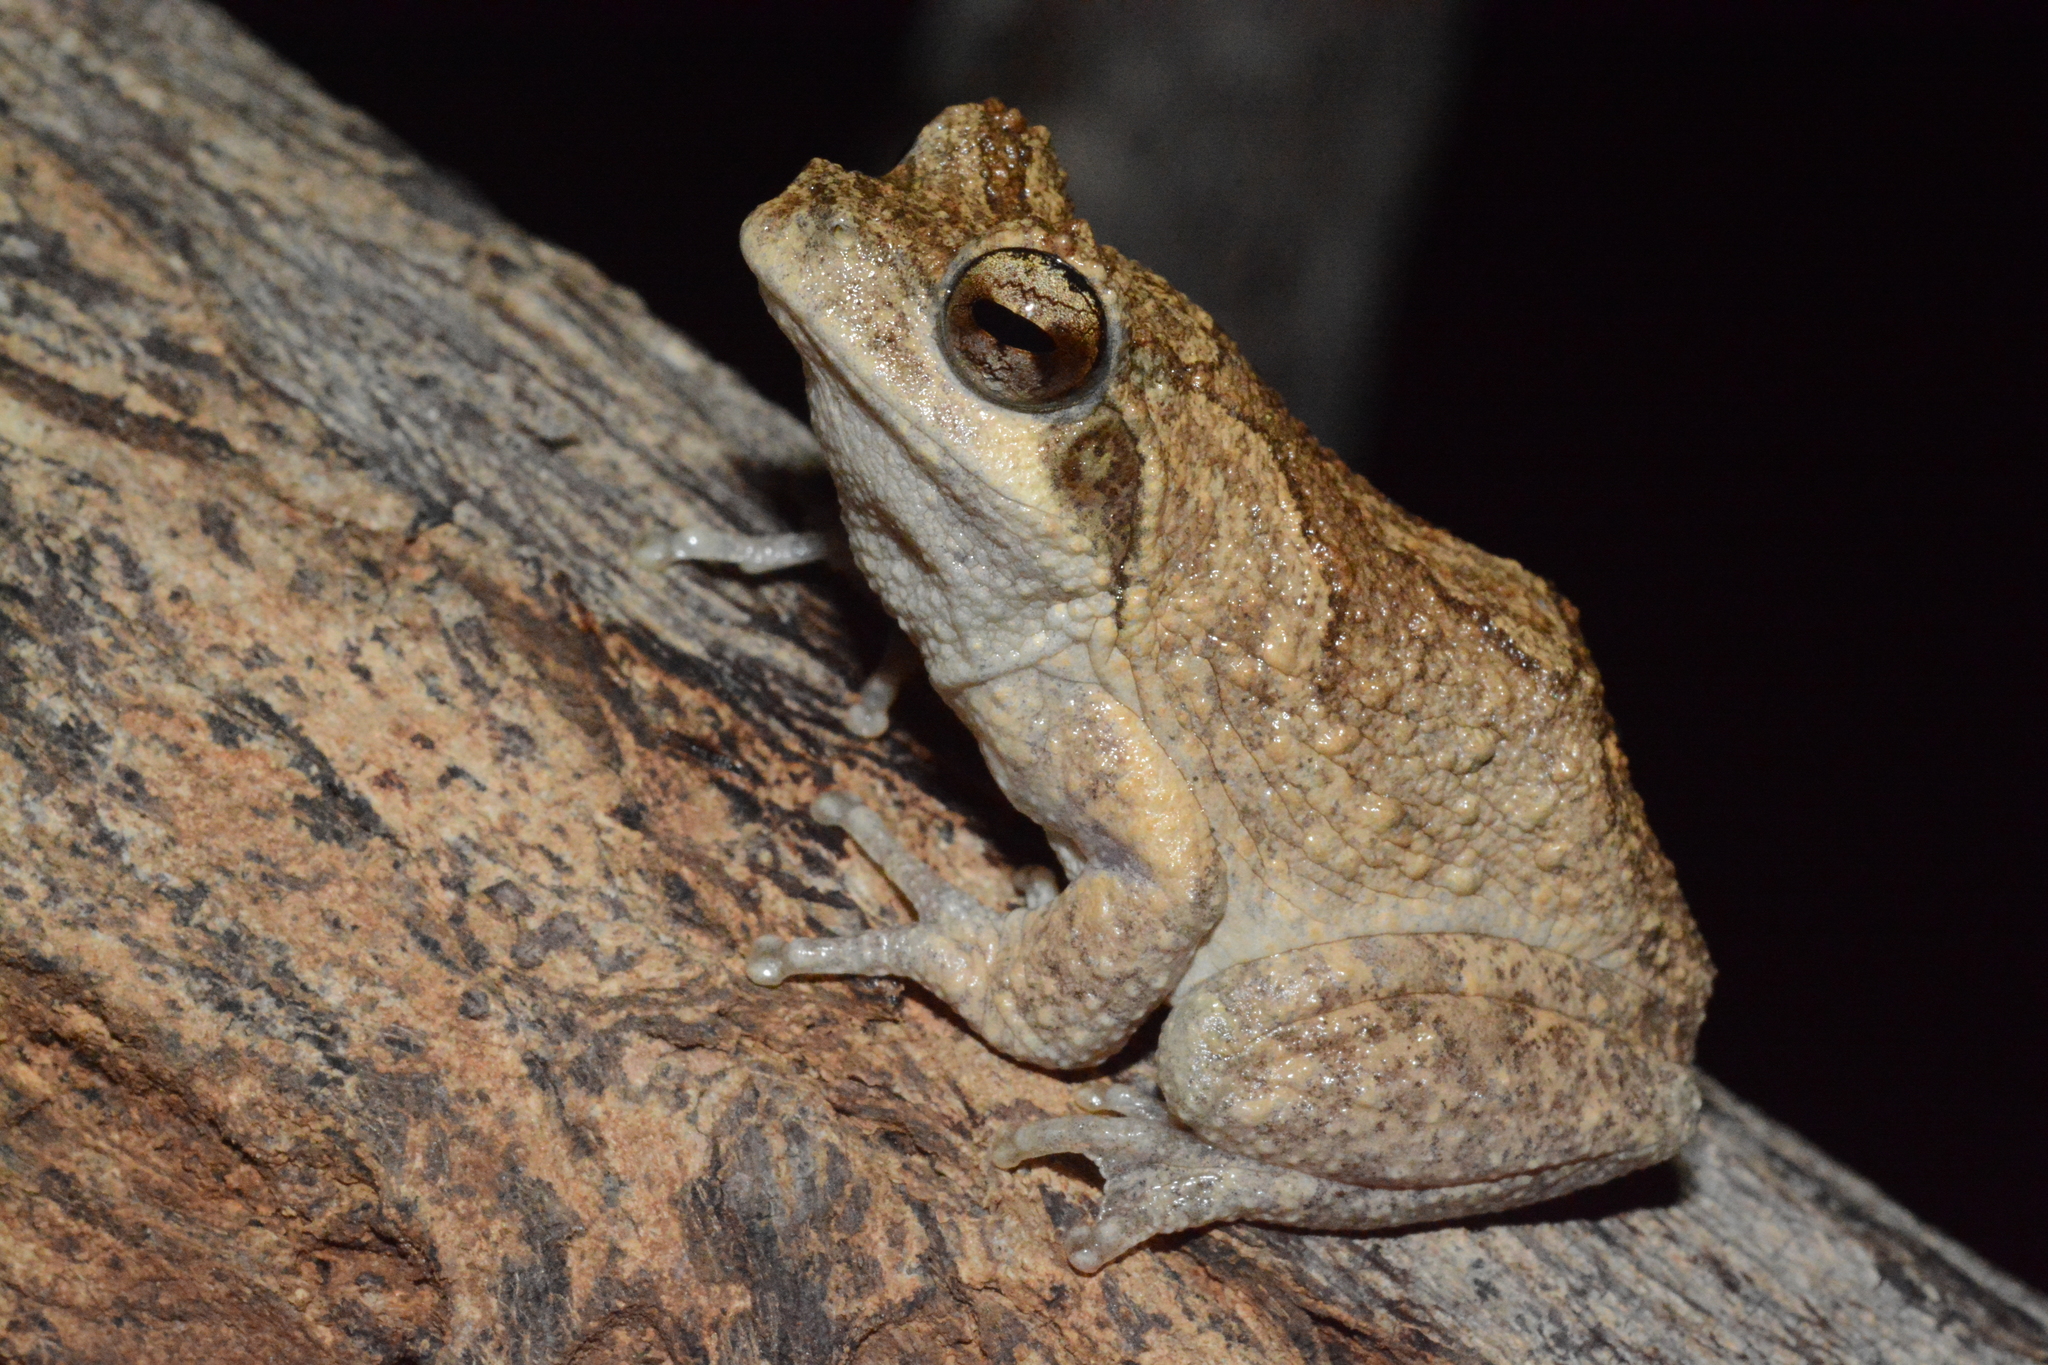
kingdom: Animalia
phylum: Chordata
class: Amphibia
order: Anura
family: Rhacophoridae
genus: Chiromantis
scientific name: Chiromantis petersii
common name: Central foam-nest tree frog
